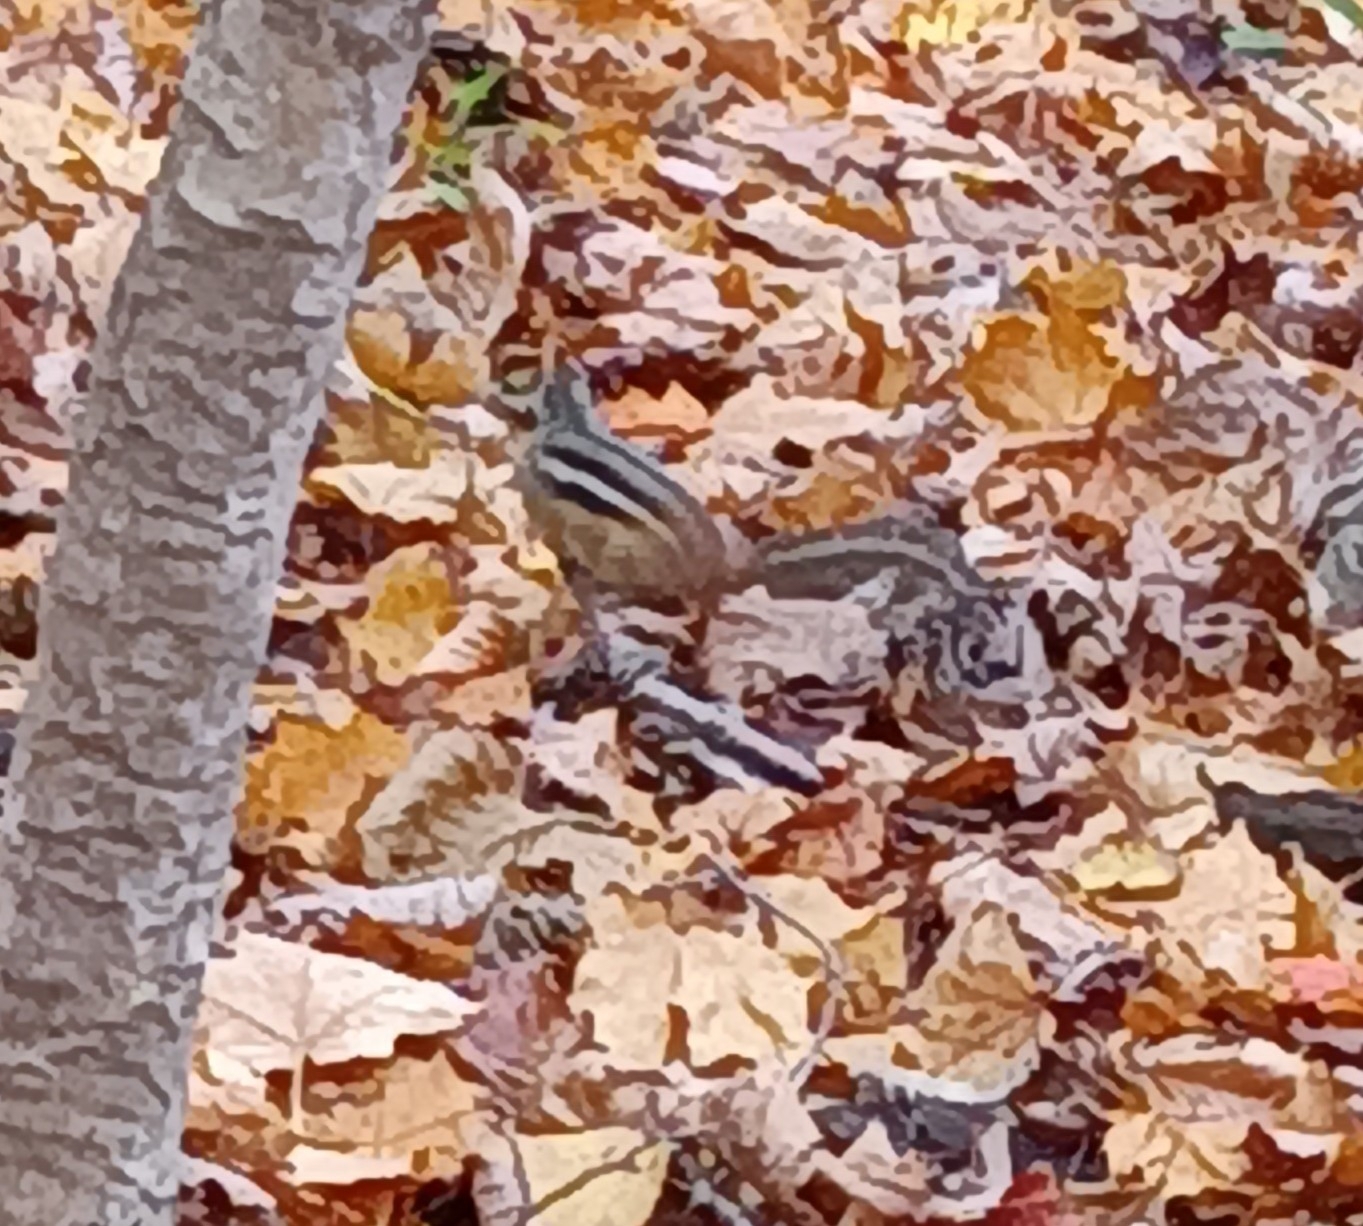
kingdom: Animalia
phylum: Chordata
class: Mammalia
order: Rodentia
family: Sciuridae
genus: Tamias
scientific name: Tamias striatus
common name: Eastern chipmunk
